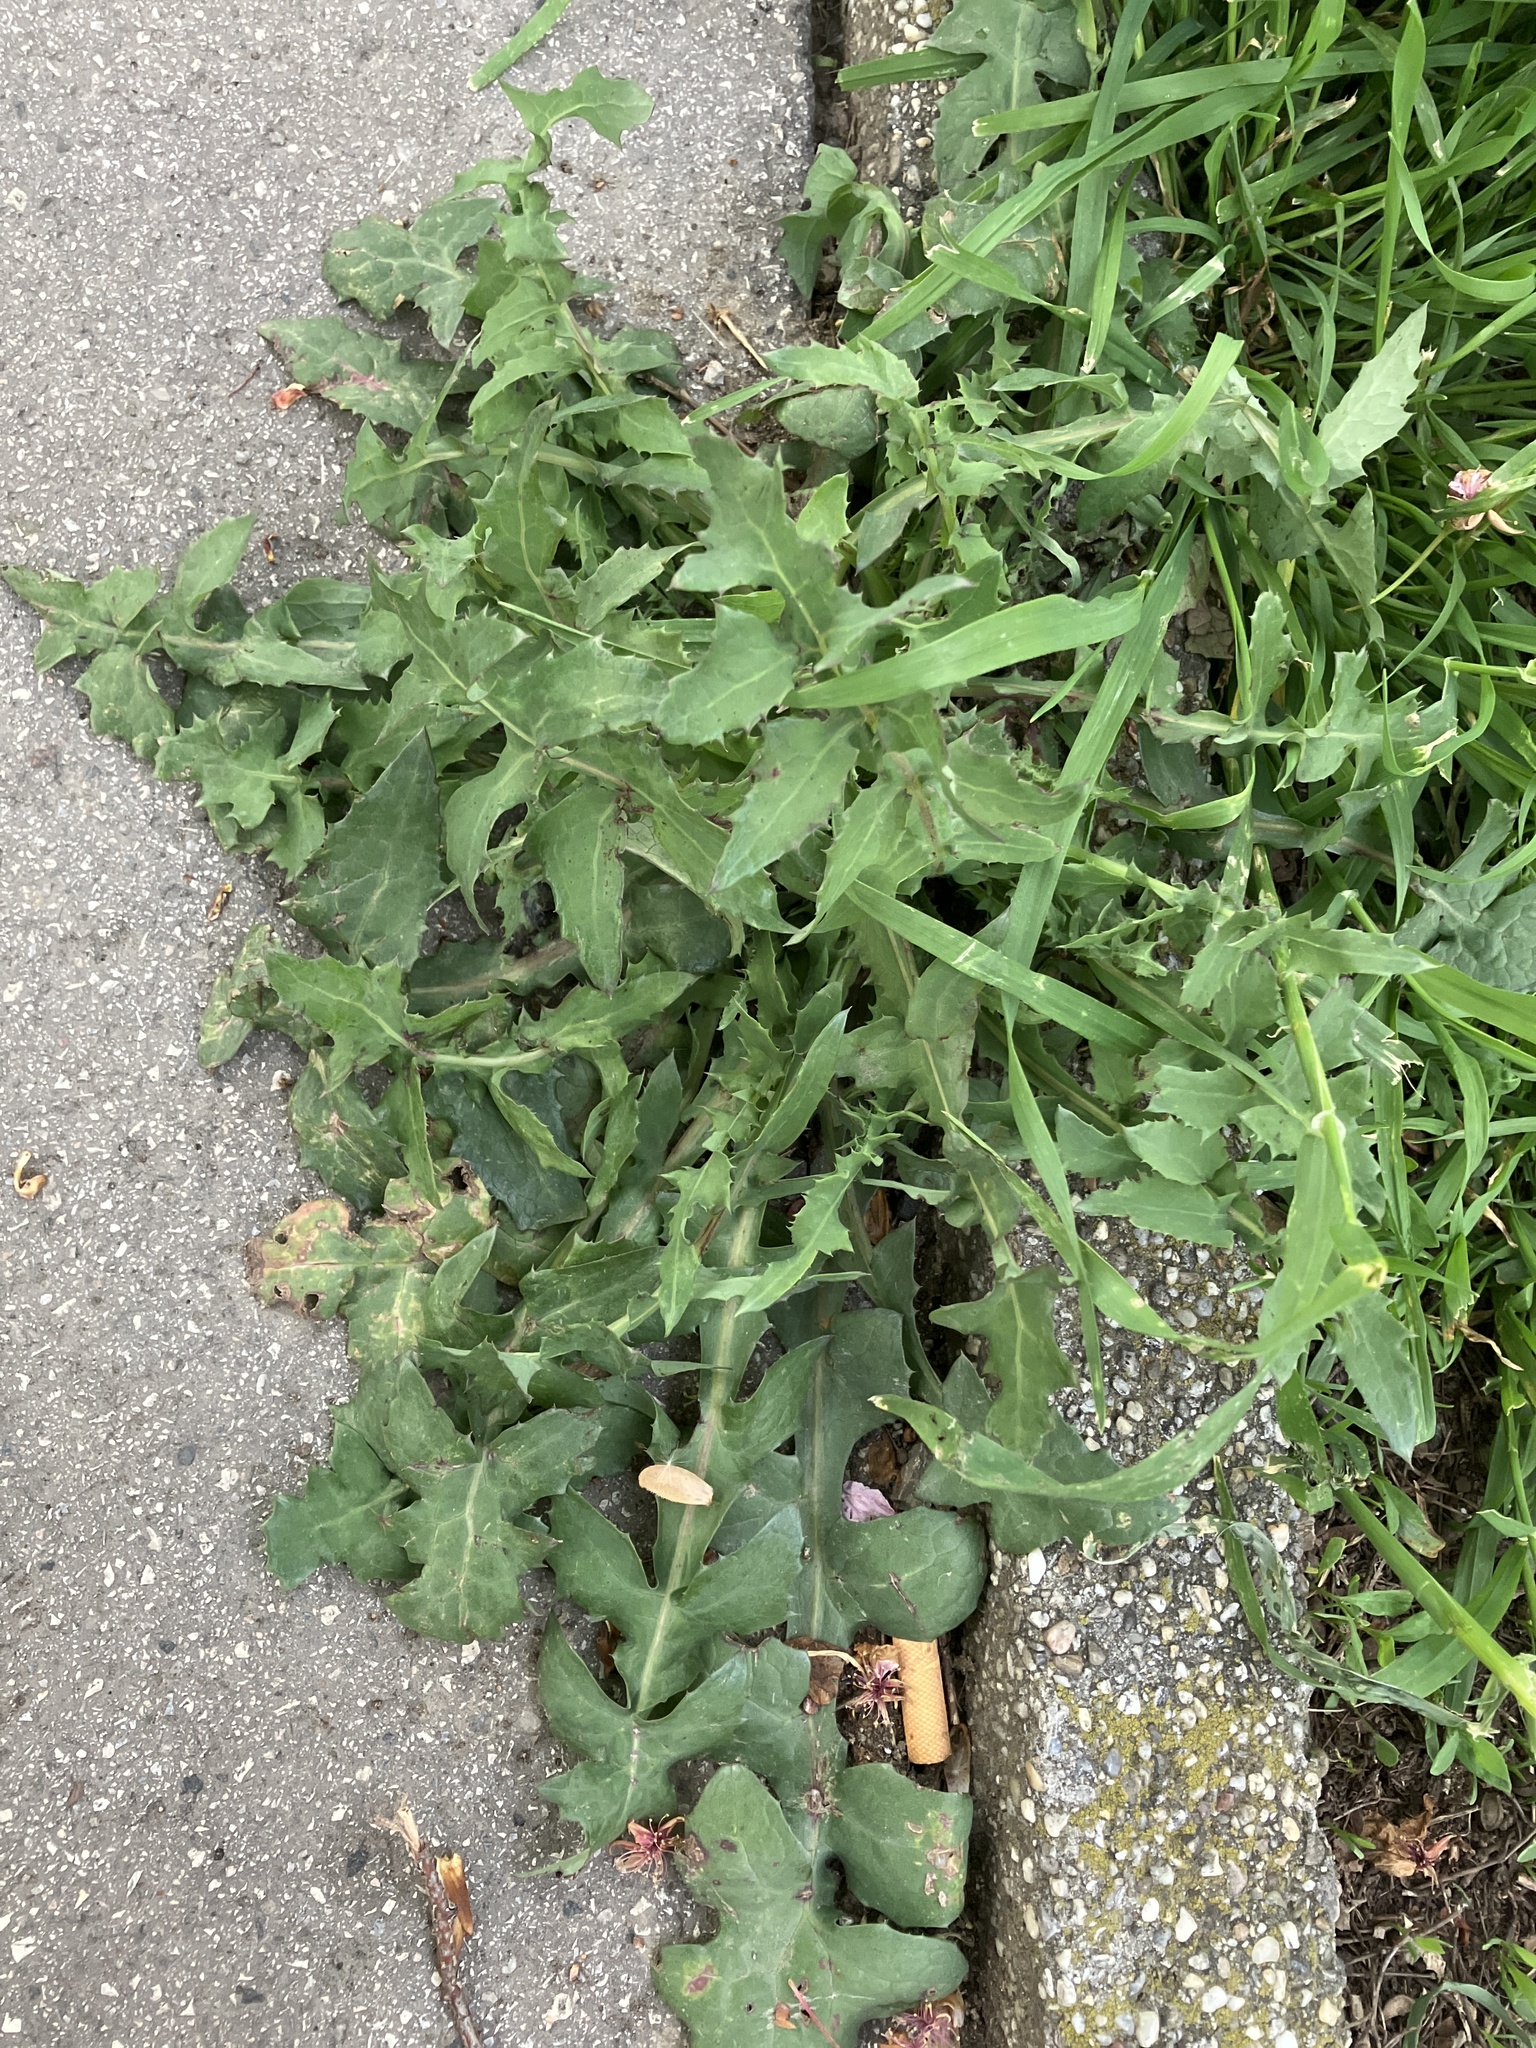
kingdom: Plantae
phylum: Tracheophyta
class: Magnoliopsida
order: Asterales
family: Asteraceae
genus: Sonchus
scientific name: Sonchus oleraceus
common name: Common sowthistle
